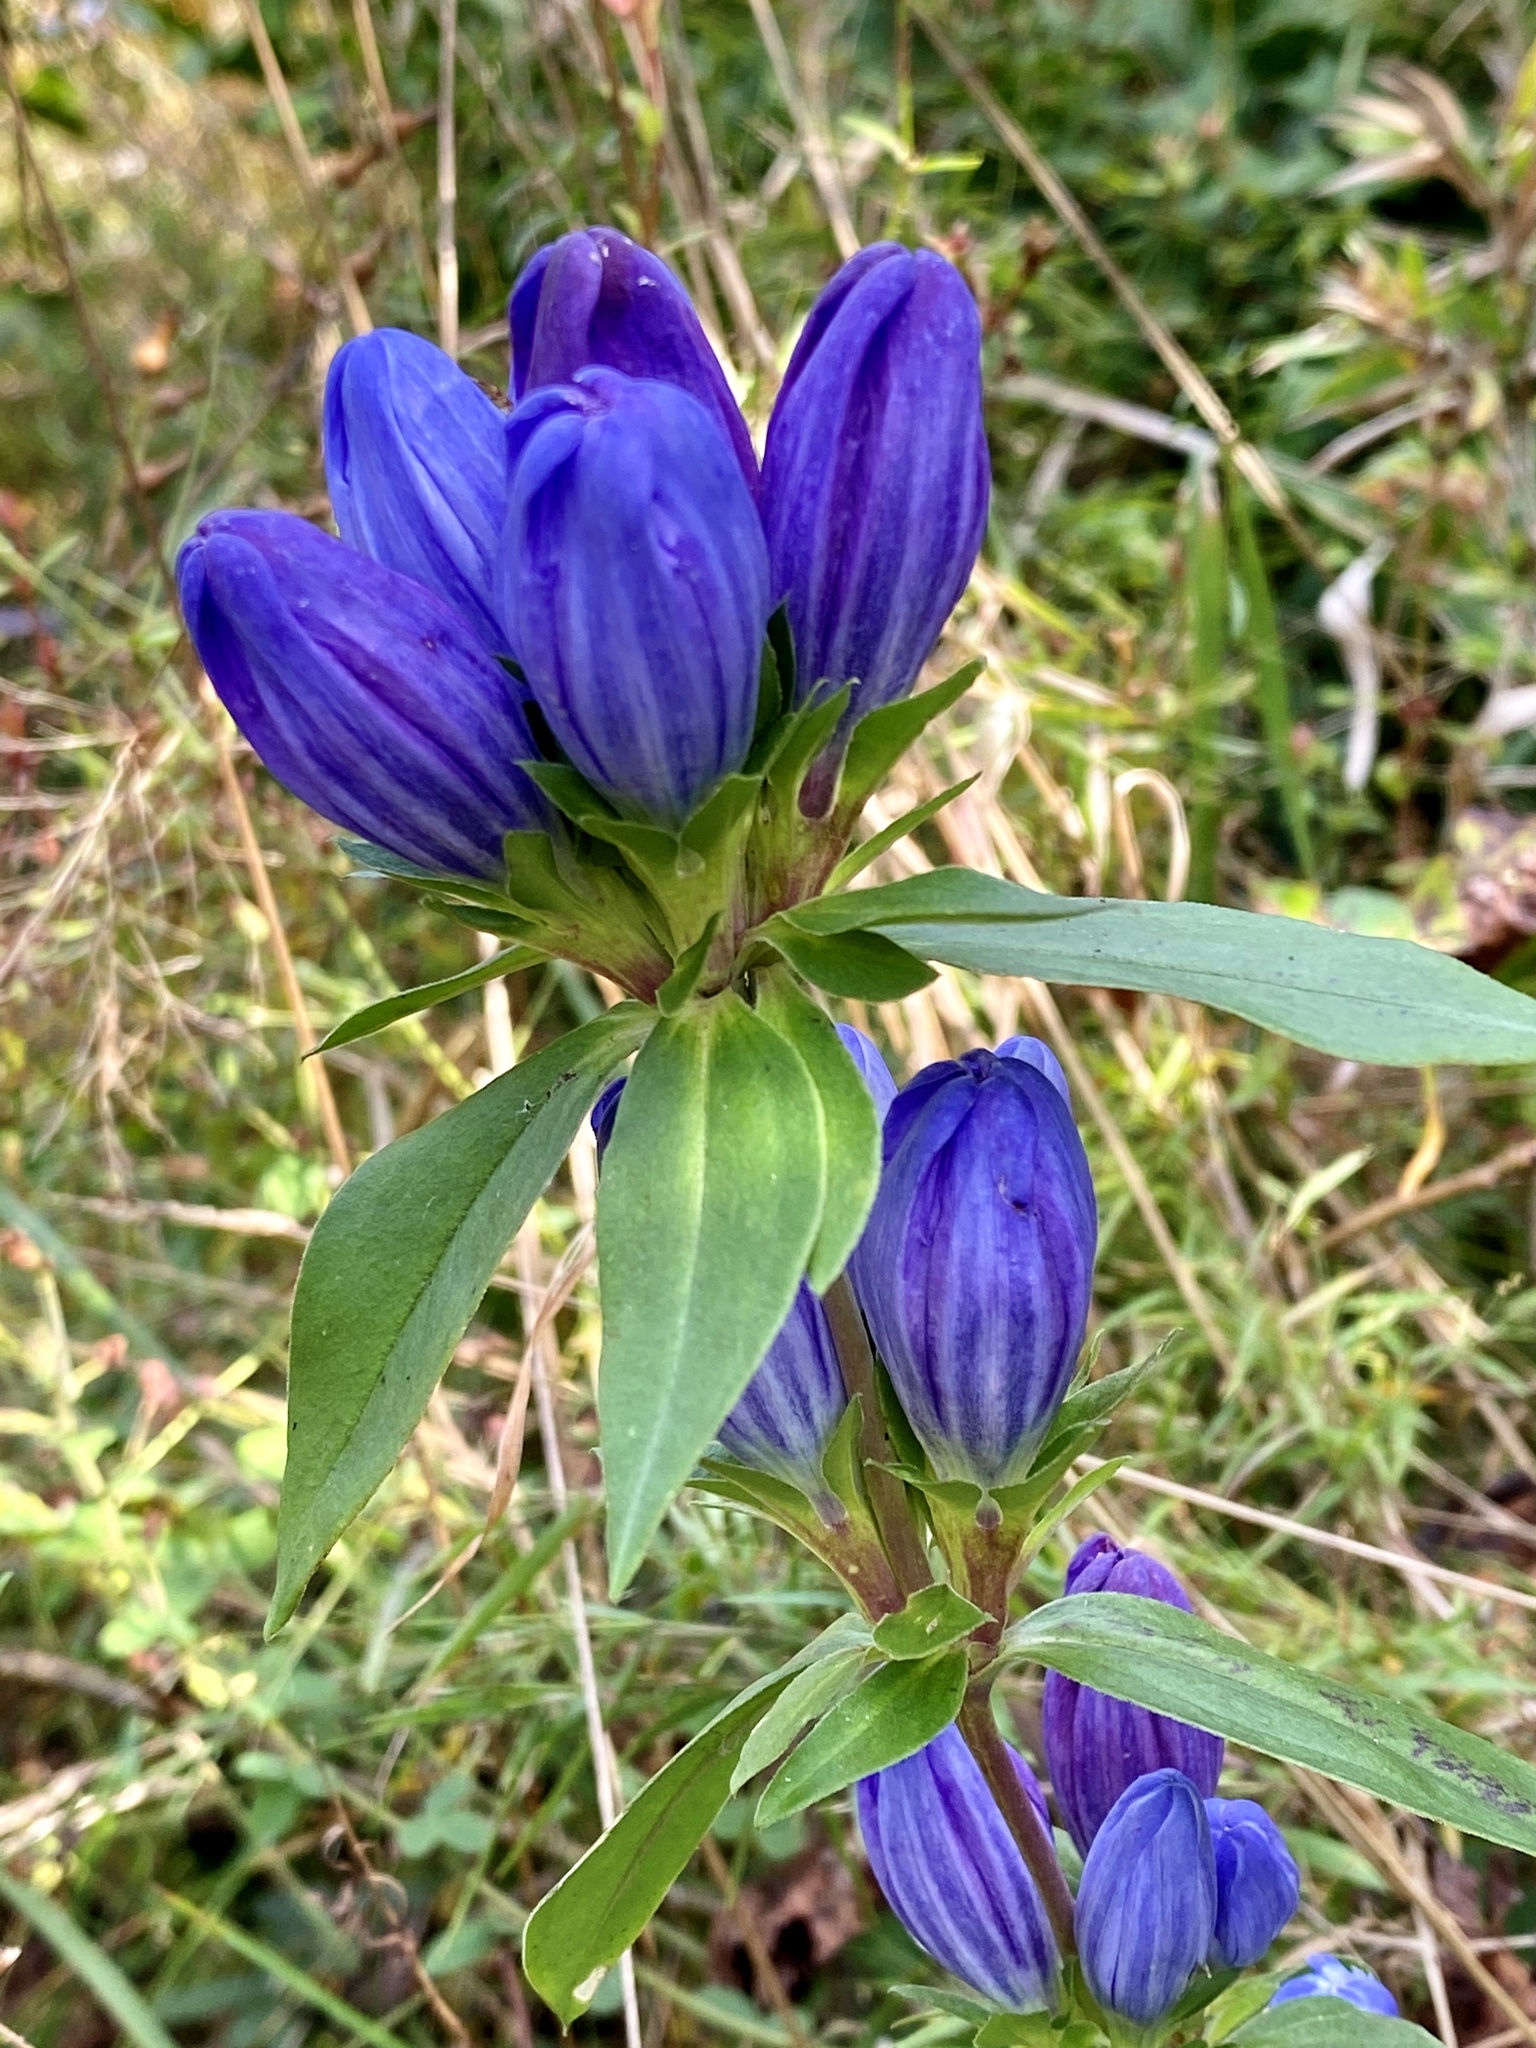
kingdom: Plantae
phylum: Tracheophyta
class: Magnoliopsida
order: Gentianales
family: Gentianaceae
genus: Gentiana
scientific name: Gentiana saponaria
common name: Soapwort gentian
